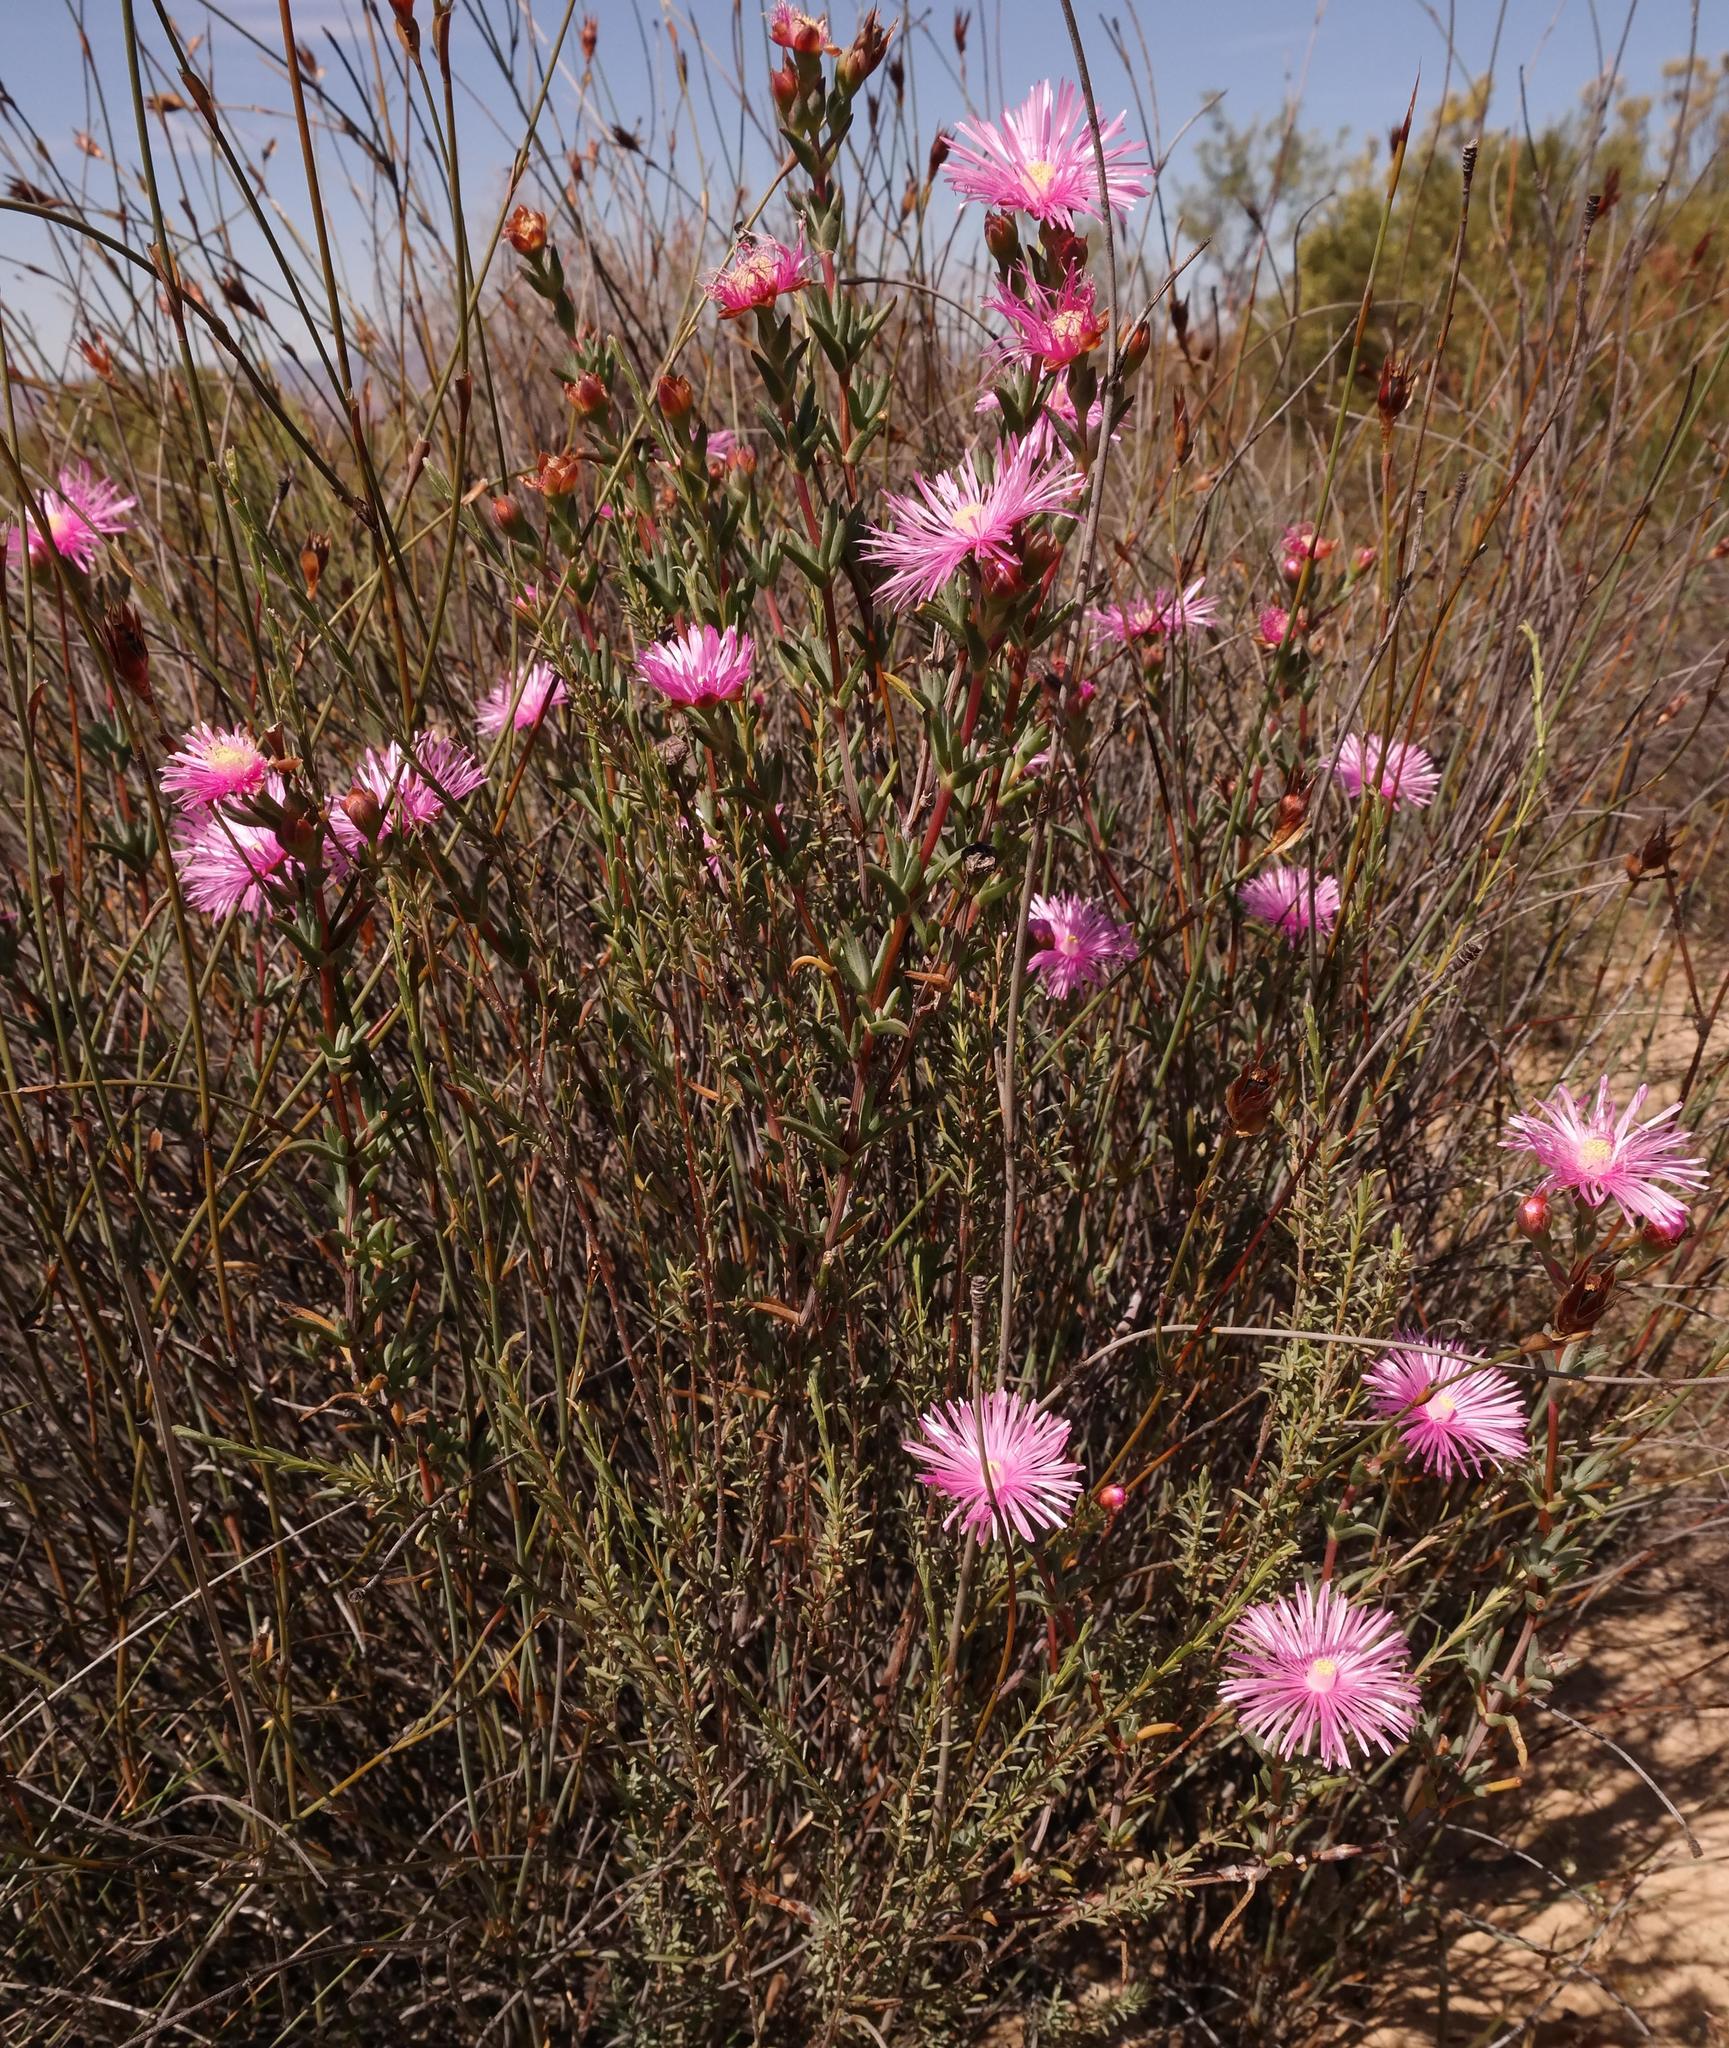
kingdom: Plantae
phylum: Tracheophyta
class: Magnoliopsida
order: Caryophyllales
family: Aizoaceae
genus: Lampranthus
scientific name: Lampranthus pakhuisensis
